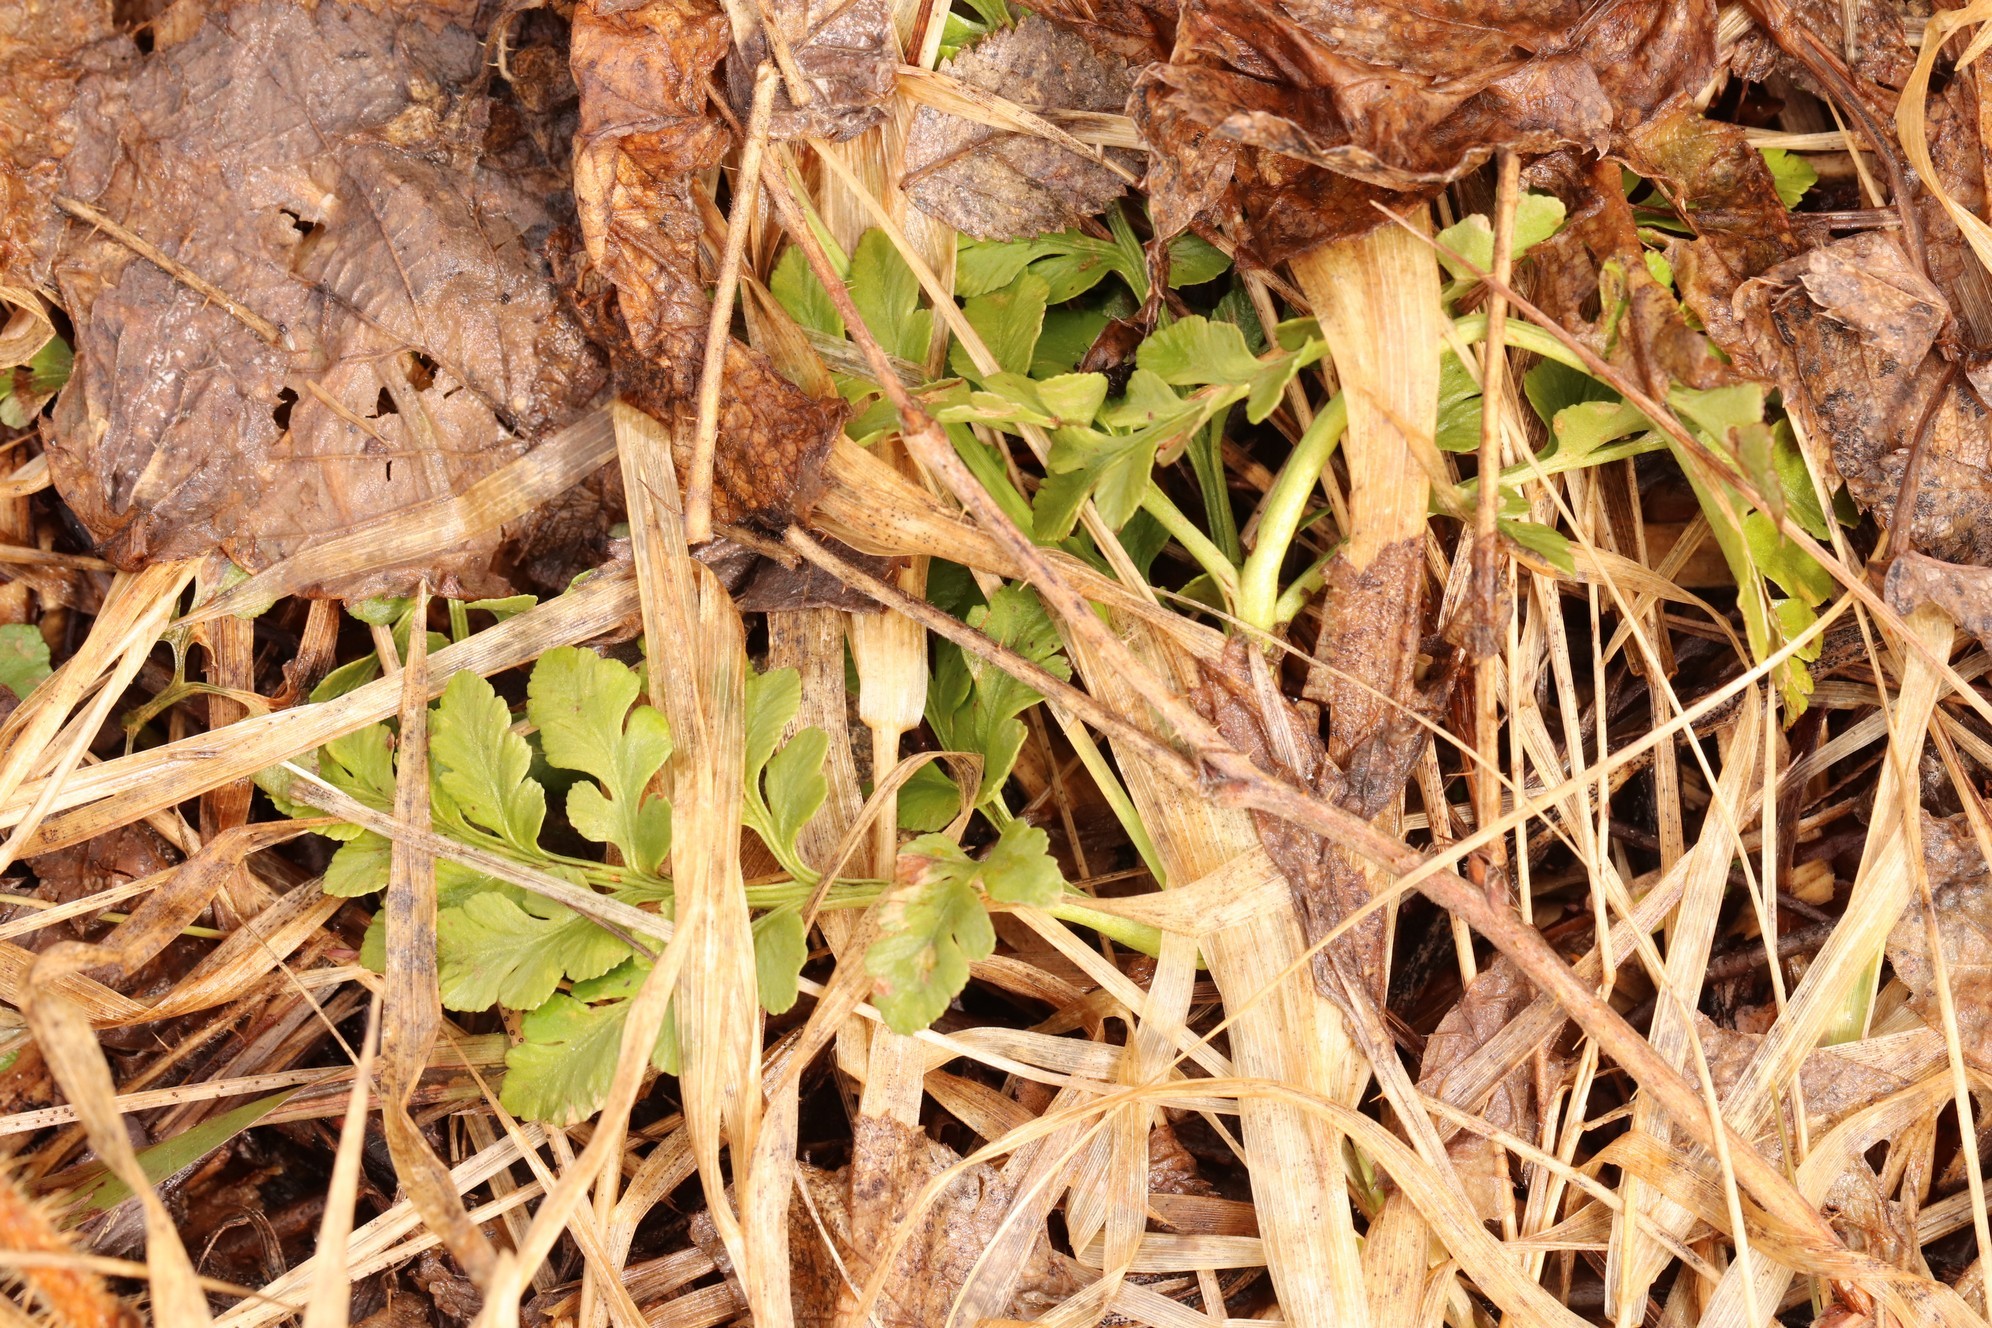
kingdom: Plantae
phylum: Tracheophyta
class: Polypodiopsida
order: Ophioglossales
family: Ophioglossaceae
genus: Sceptridium
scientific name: Sceptridium multifidum
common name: Leathery grape fern
